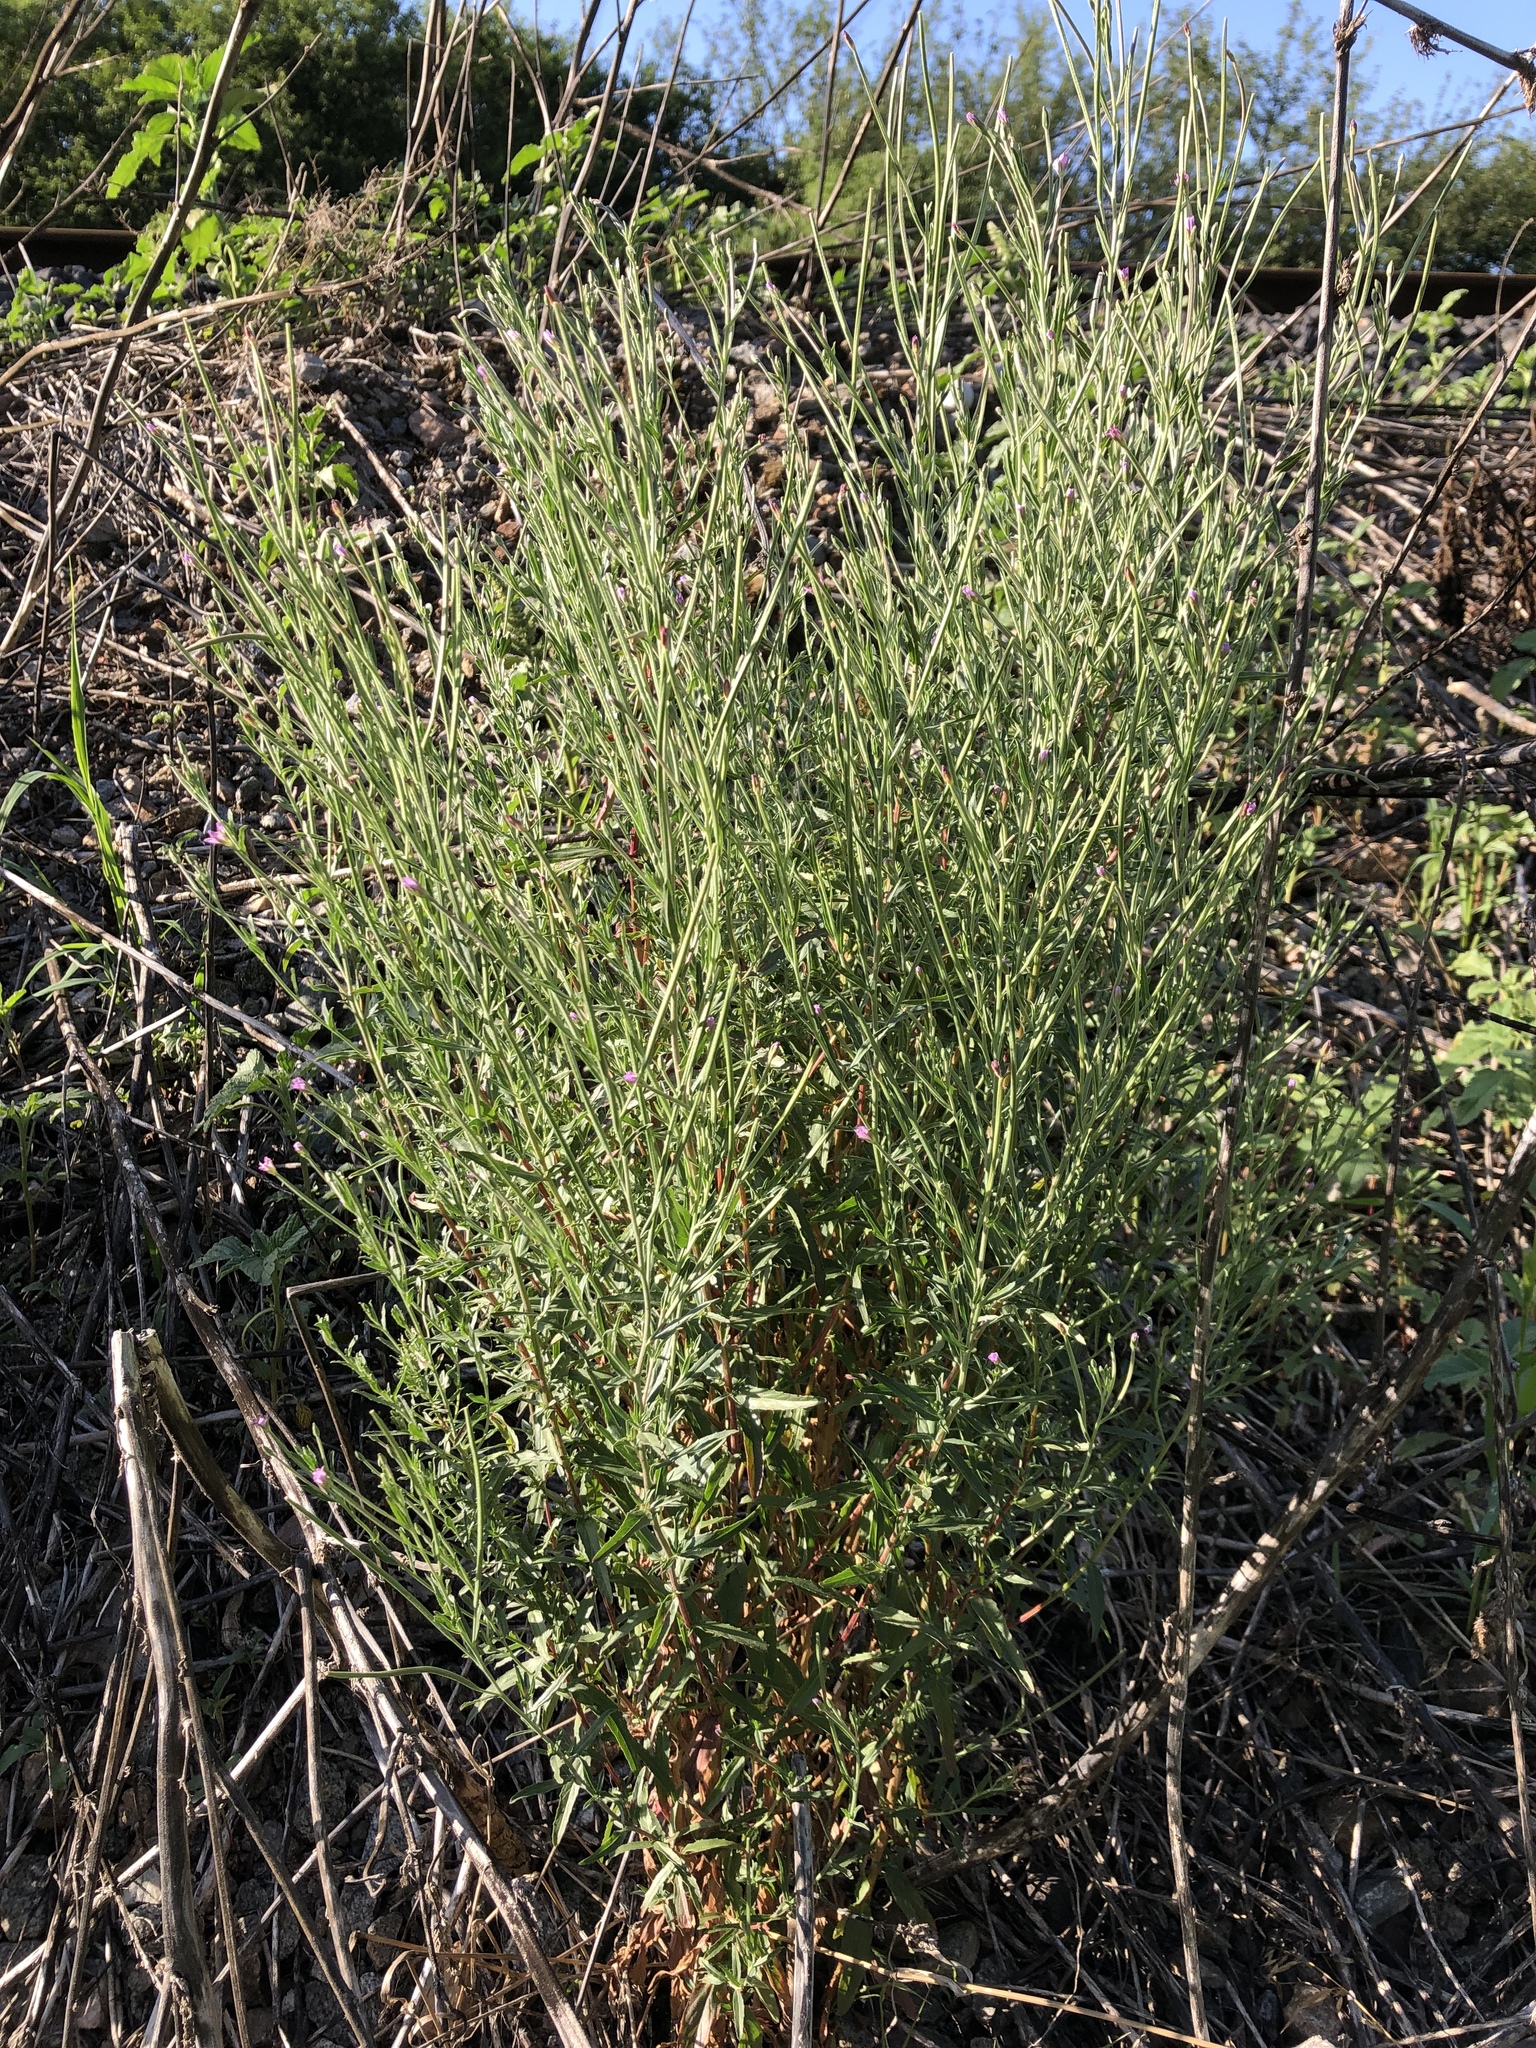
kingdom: Plantae
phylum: Tracheophyta
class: Magnoliopsida
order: Myrtales
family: Onagraceae
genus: Epilobium
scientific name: Epilobium lamyi
